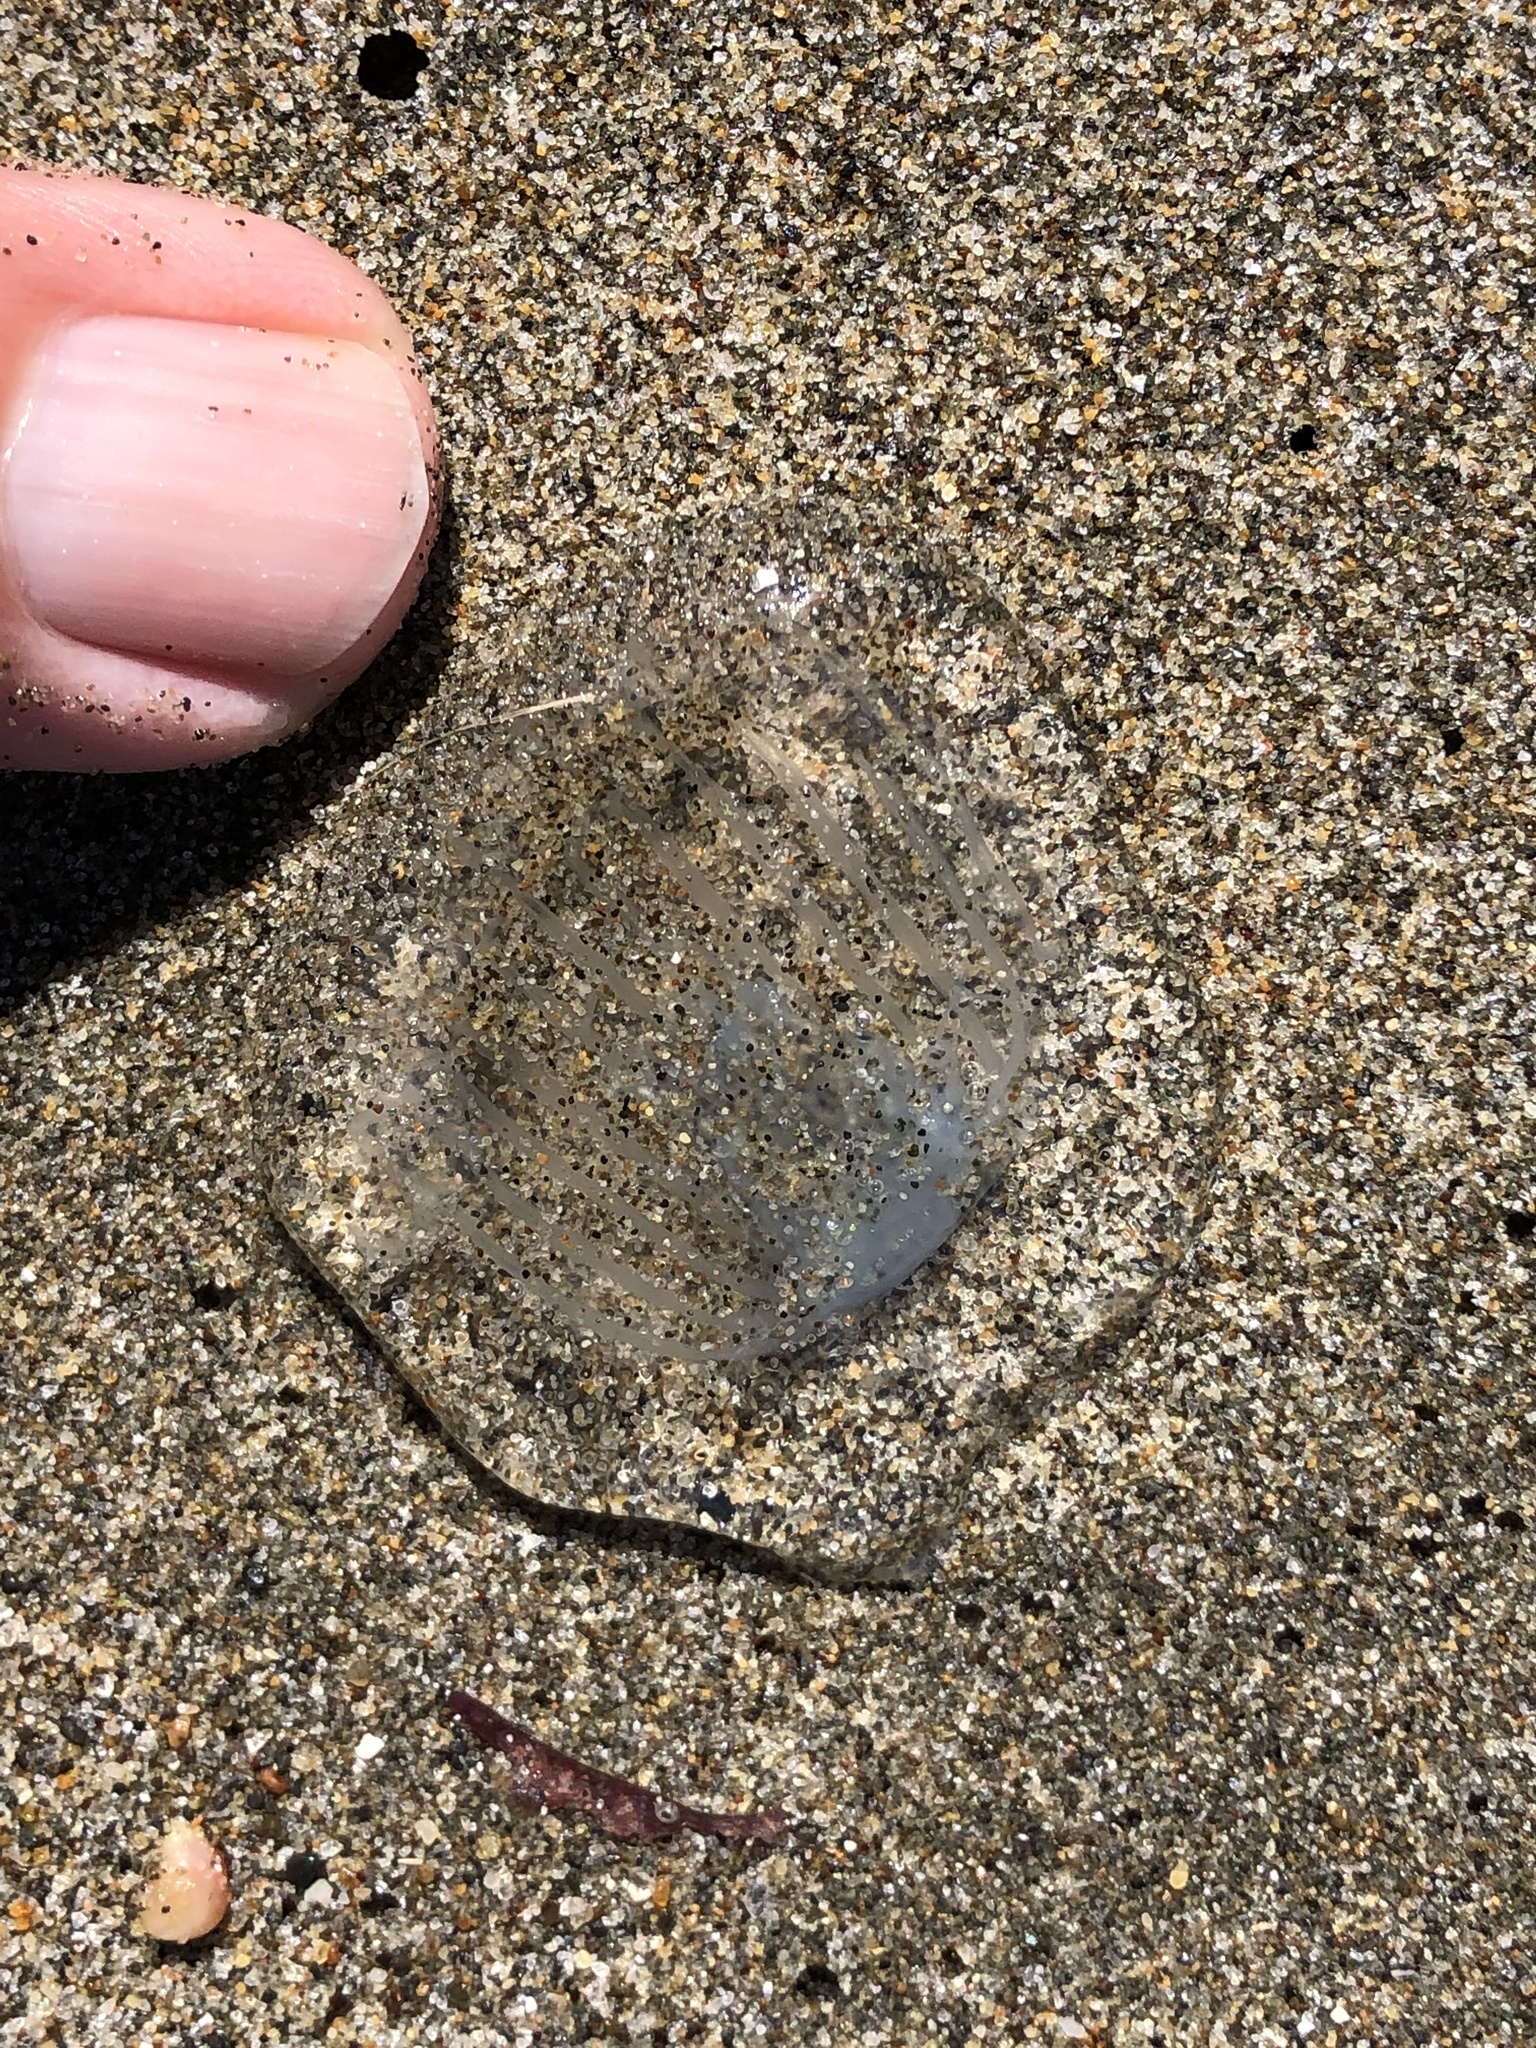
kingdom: Animalia
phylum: Cnidaria
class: Hydrozoa
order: Leptothecata
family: Aequoreidae
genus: Aequorea
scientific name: Aequorea victoria
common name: Water jellyfish
